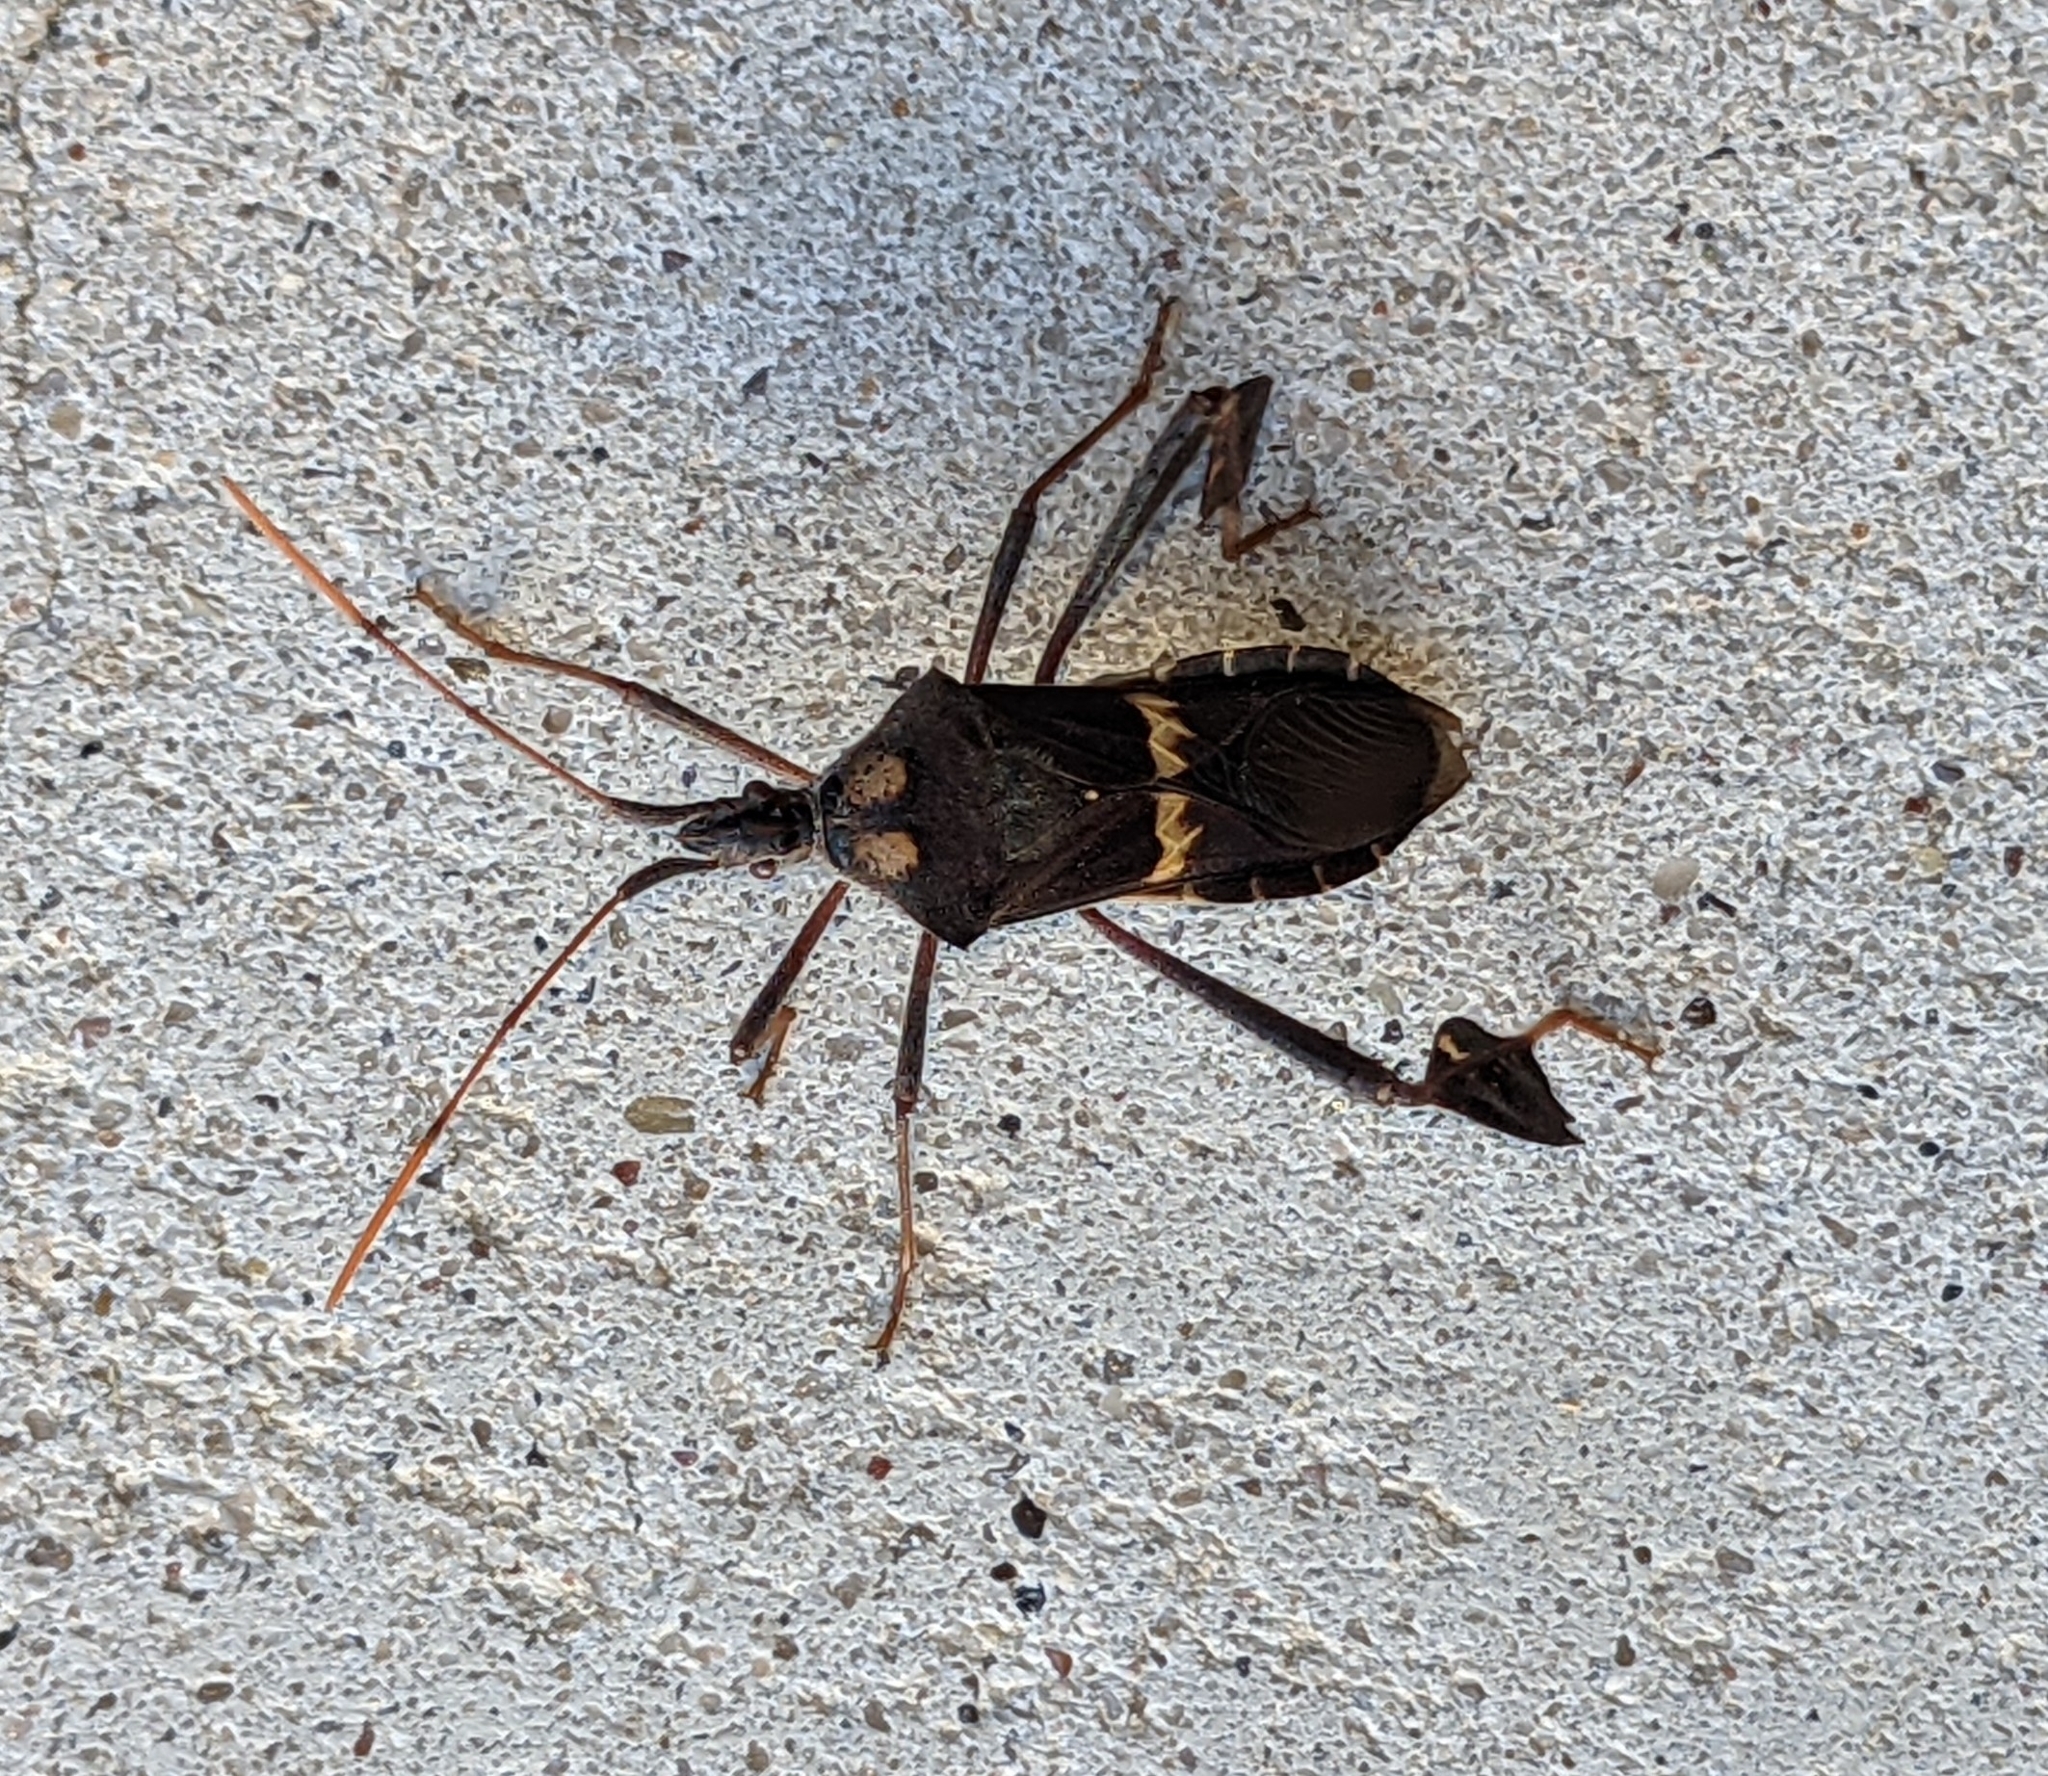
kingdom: Animalia
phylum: Arthropoda
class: Insecta
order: Hemiptera
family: Coreidae
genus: Leptoglossus
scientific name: Leptoglossus zonatus
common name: Large-legged bug
